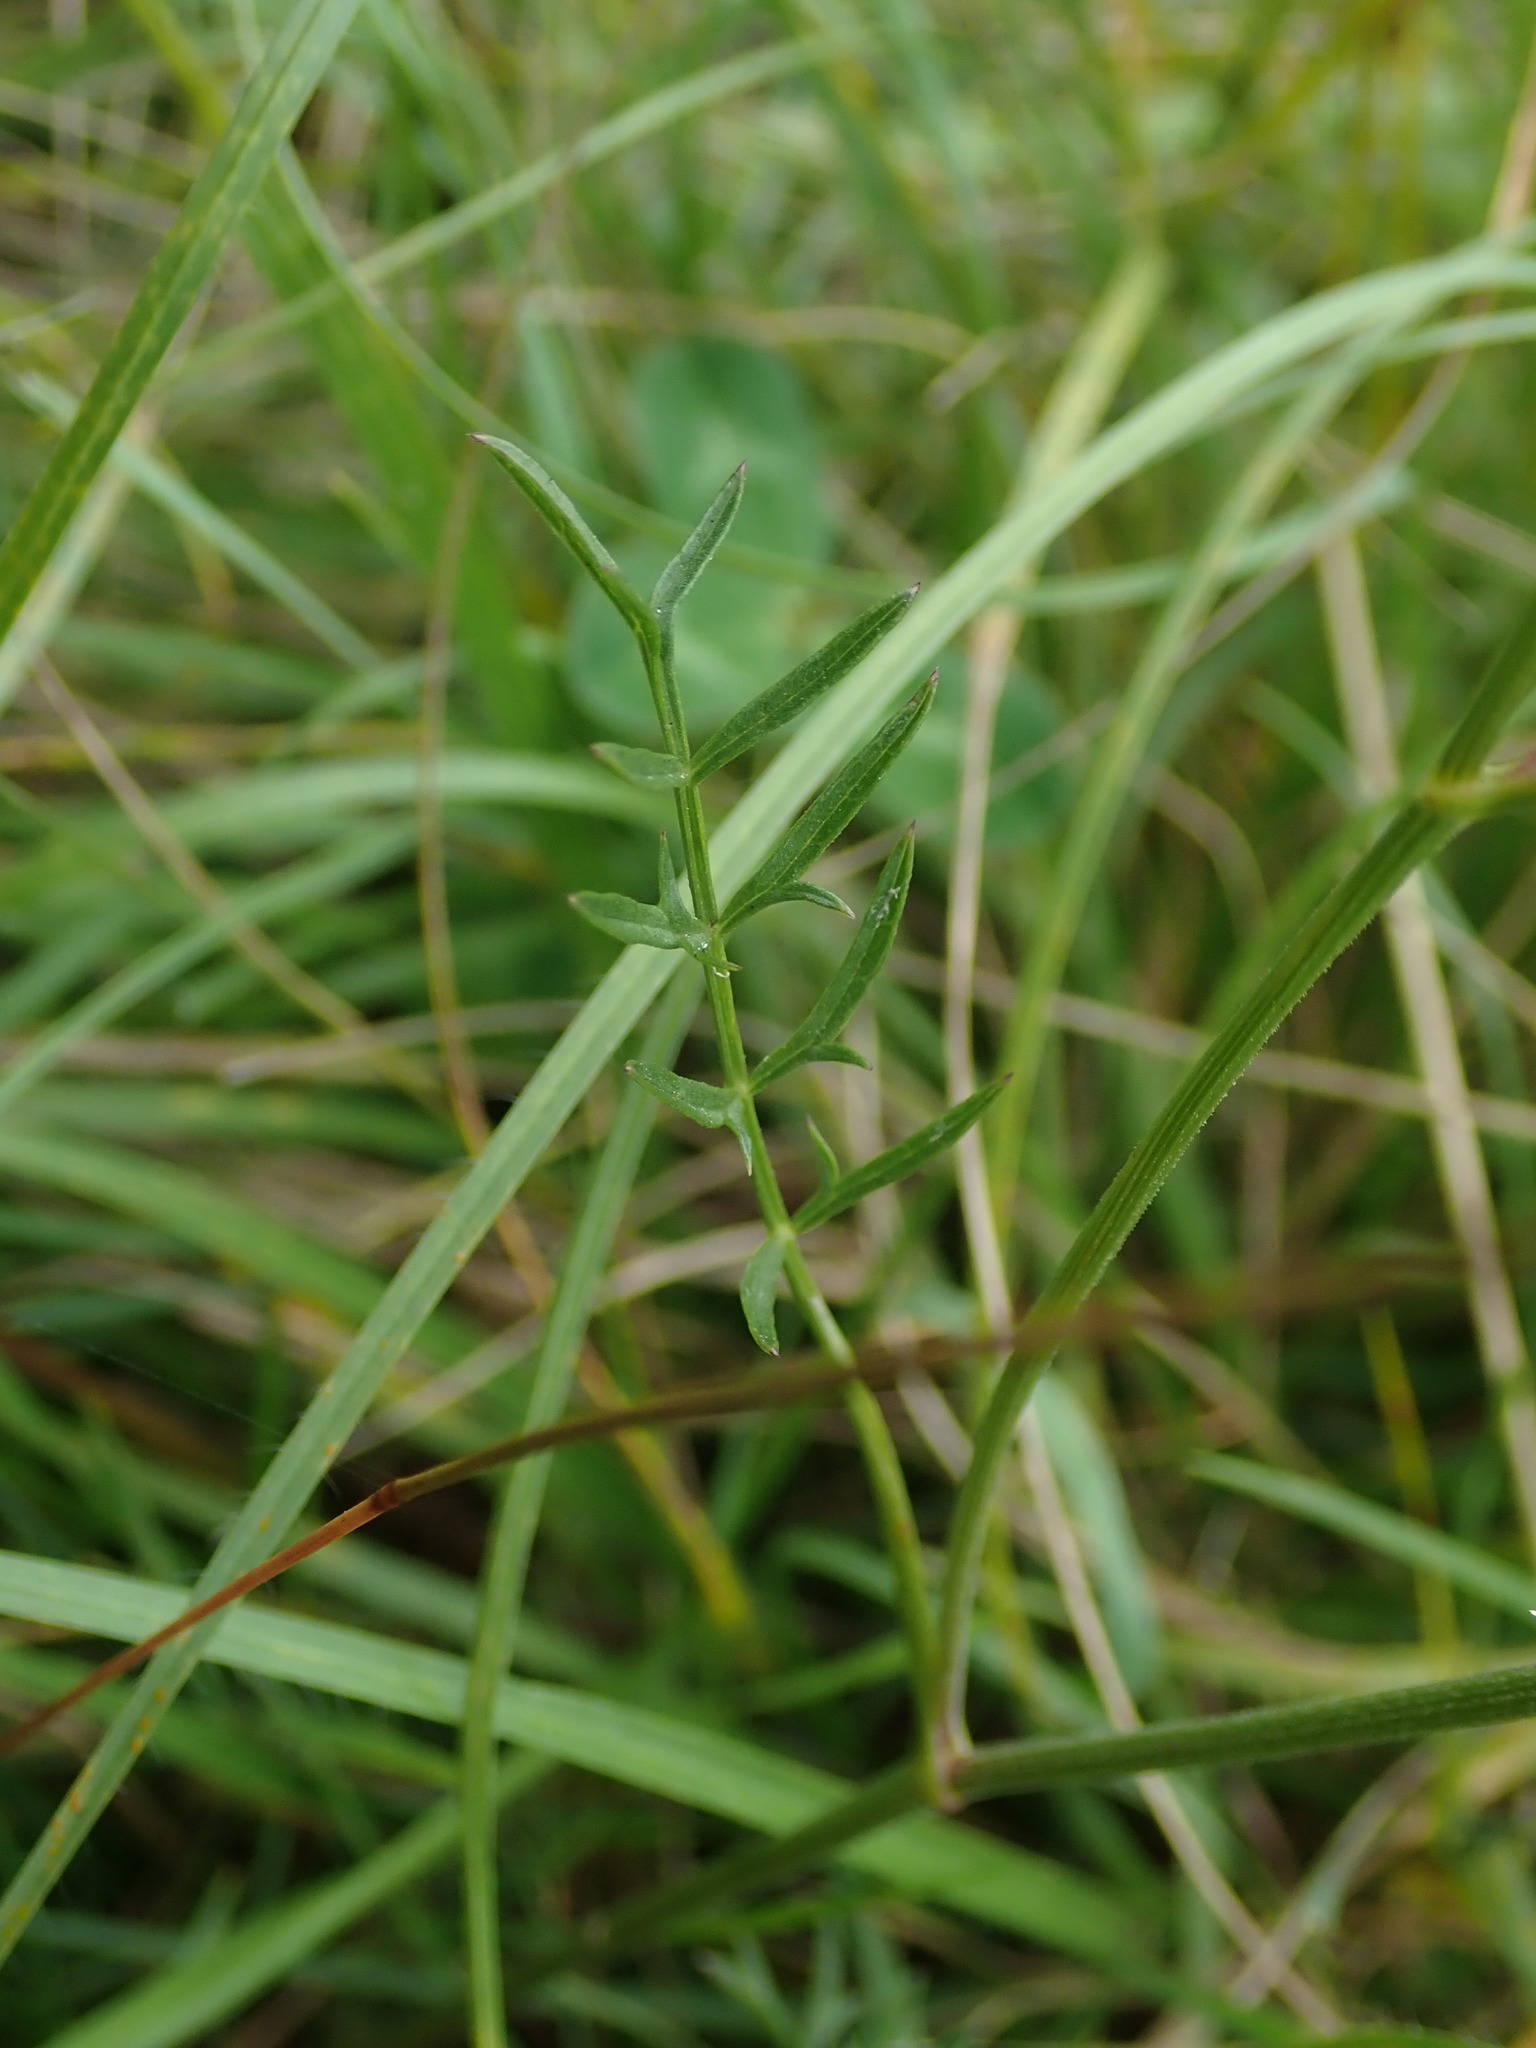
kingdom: Plantae
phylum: Tracheophyta
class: Magnoliopsida
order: Apiales
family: Apiaceae
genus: Pimpinella
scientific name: Pimpinella saxifraga
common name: Burnet-saxifrage
